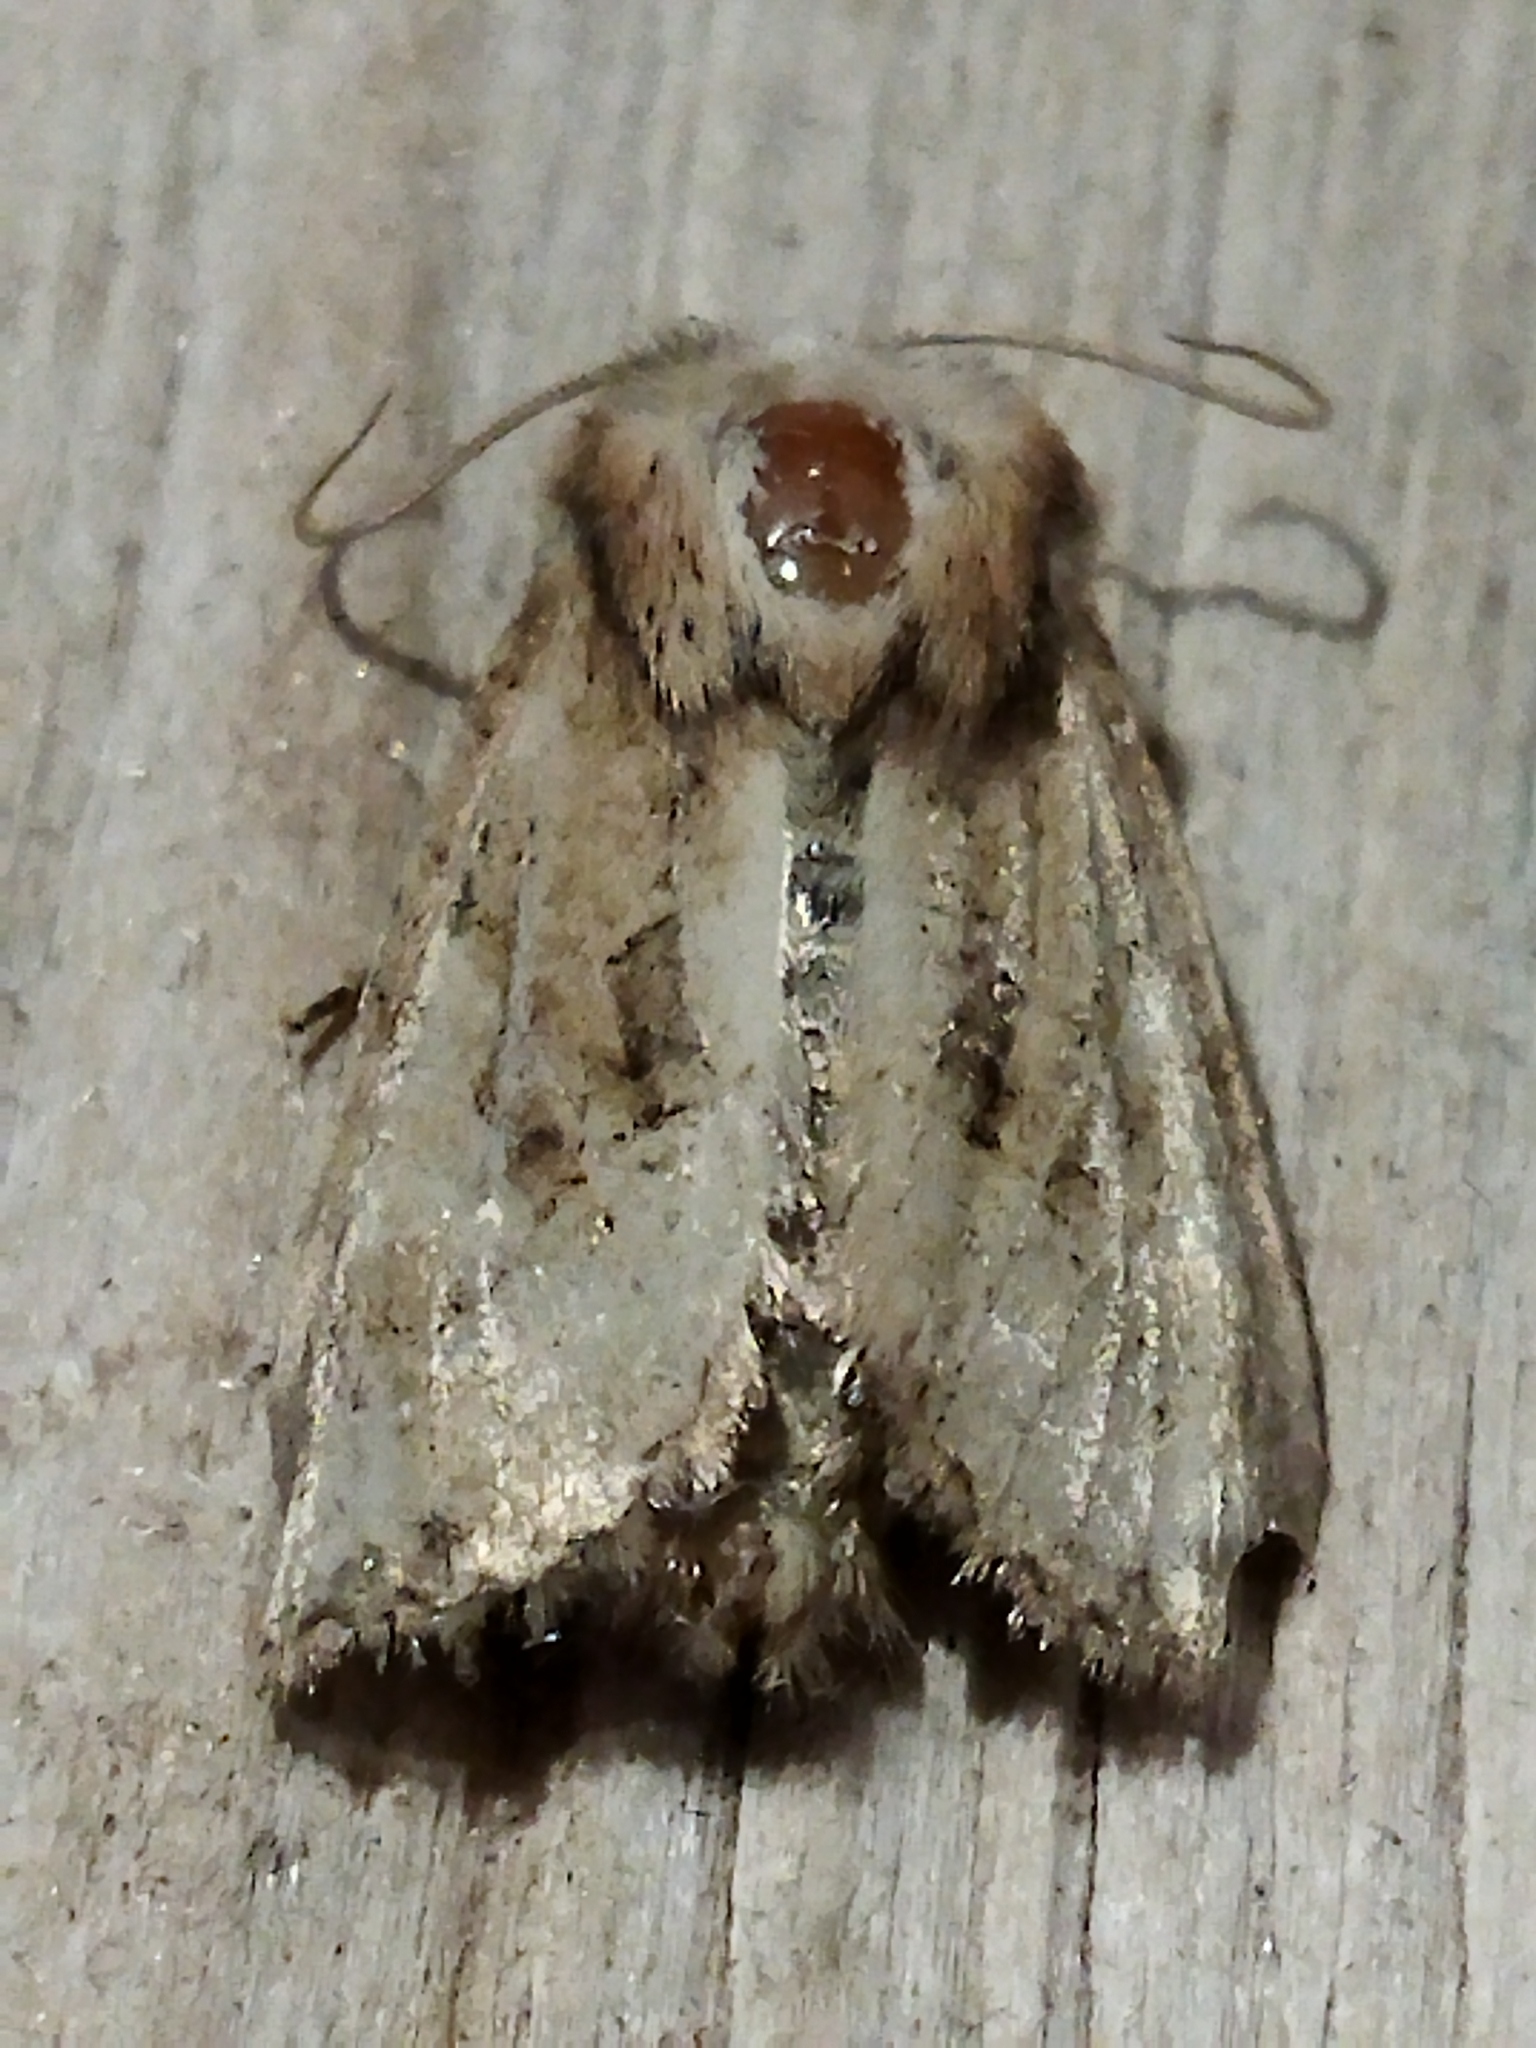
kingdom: Animalia
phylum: Arthropoda
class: Insecta
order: Lepidoptera
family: Noctuidae
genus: Luperina
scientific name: Luperina dumerilii
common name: Dumeril's rustic
